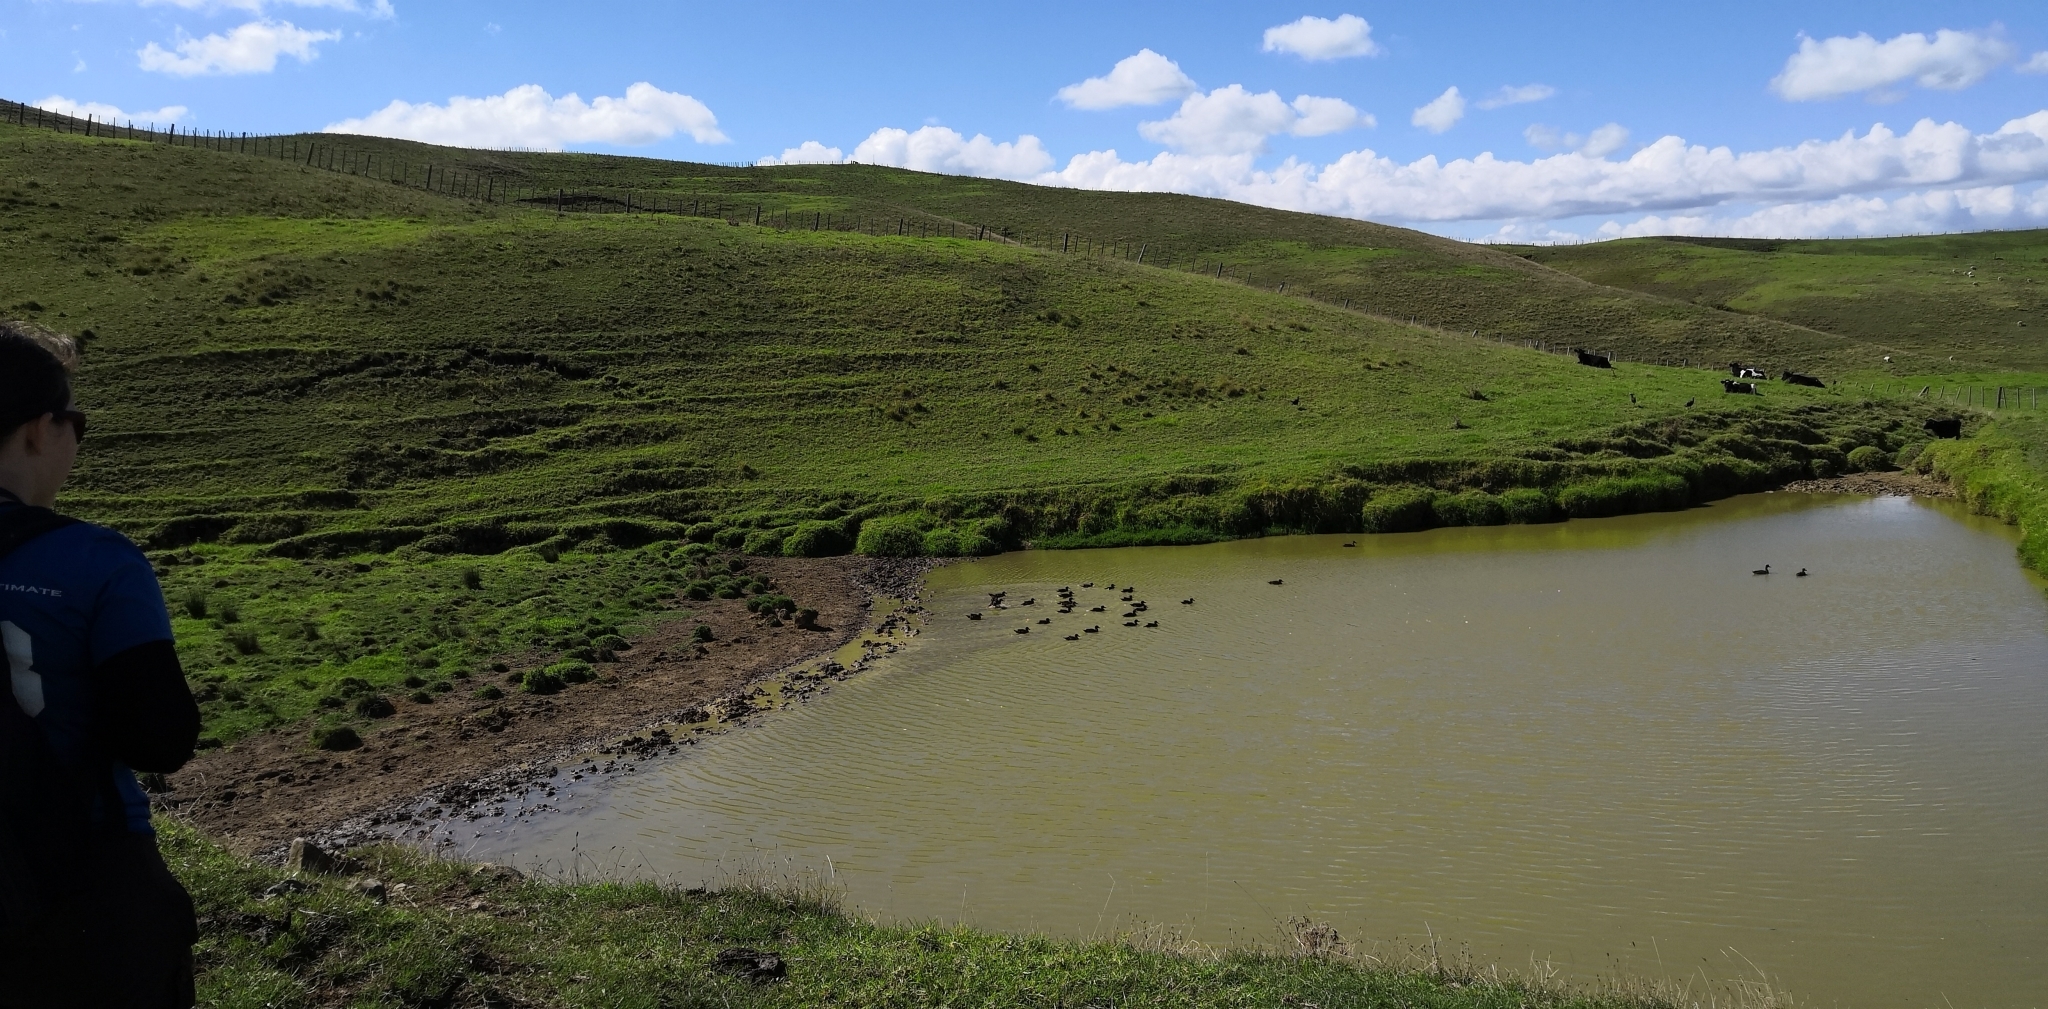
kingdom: Animalia
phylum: Chordata
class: Aves
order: Anseriformes
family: Anatidae
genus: Anas
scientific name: Anas chlorotis
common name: Brown teal
